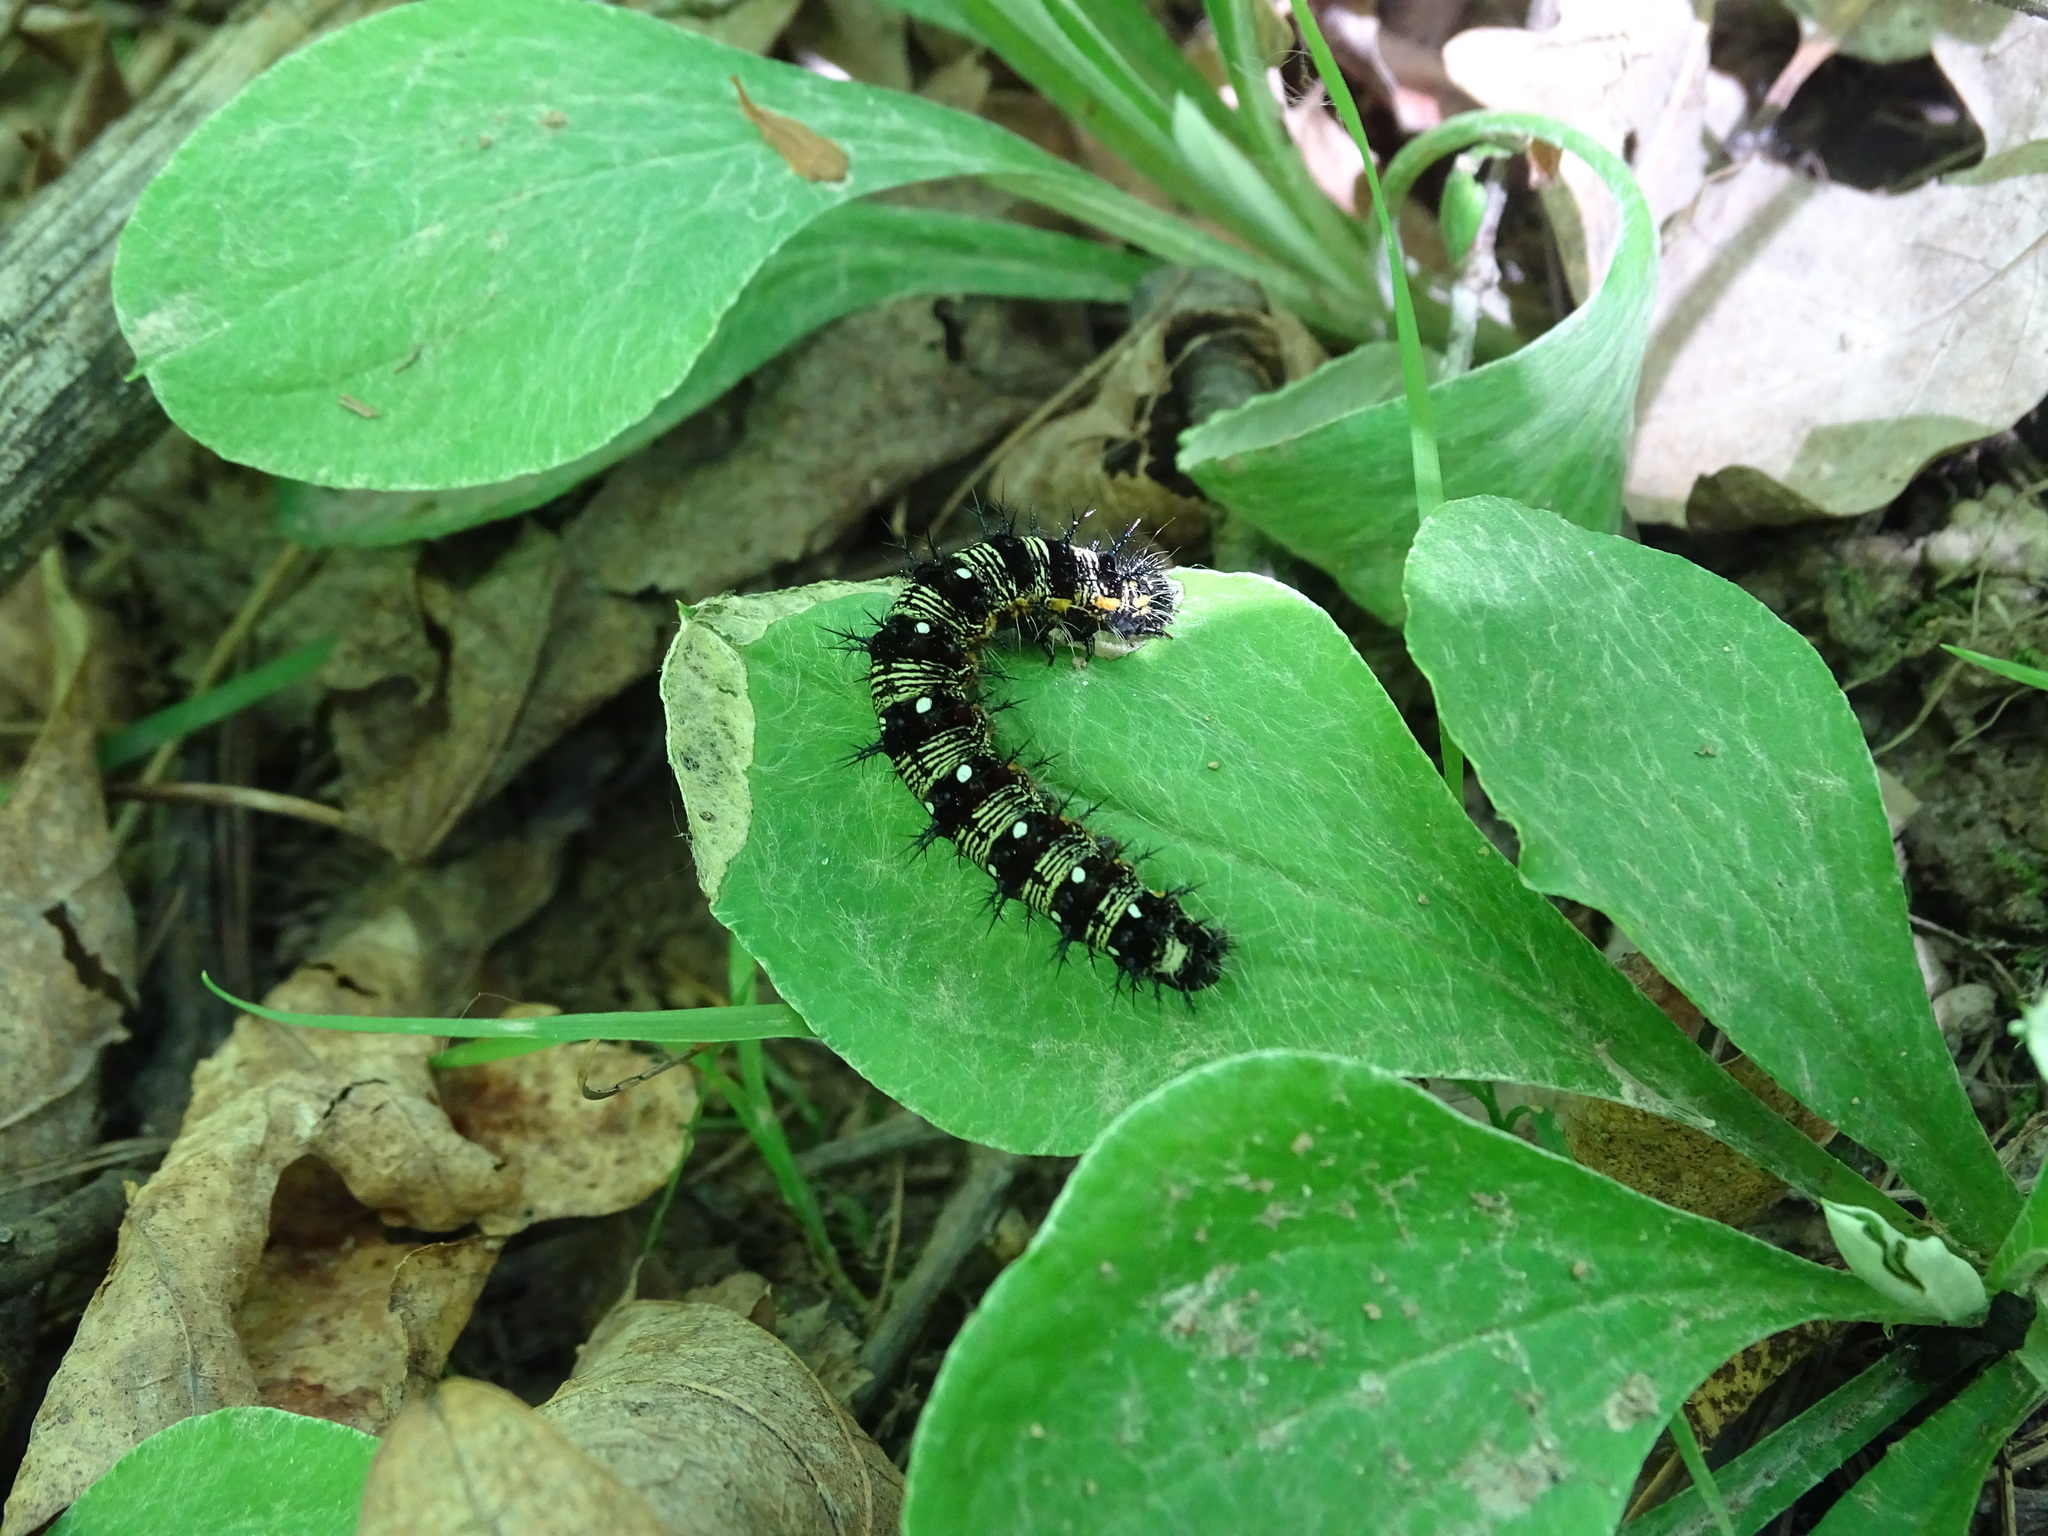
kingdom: Animalia
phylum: Arthropoda
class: Insecta
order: Lepidoptera
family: Nymphalidae
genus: Vanessa
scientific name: Vanessa virginiensis
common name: American lady
